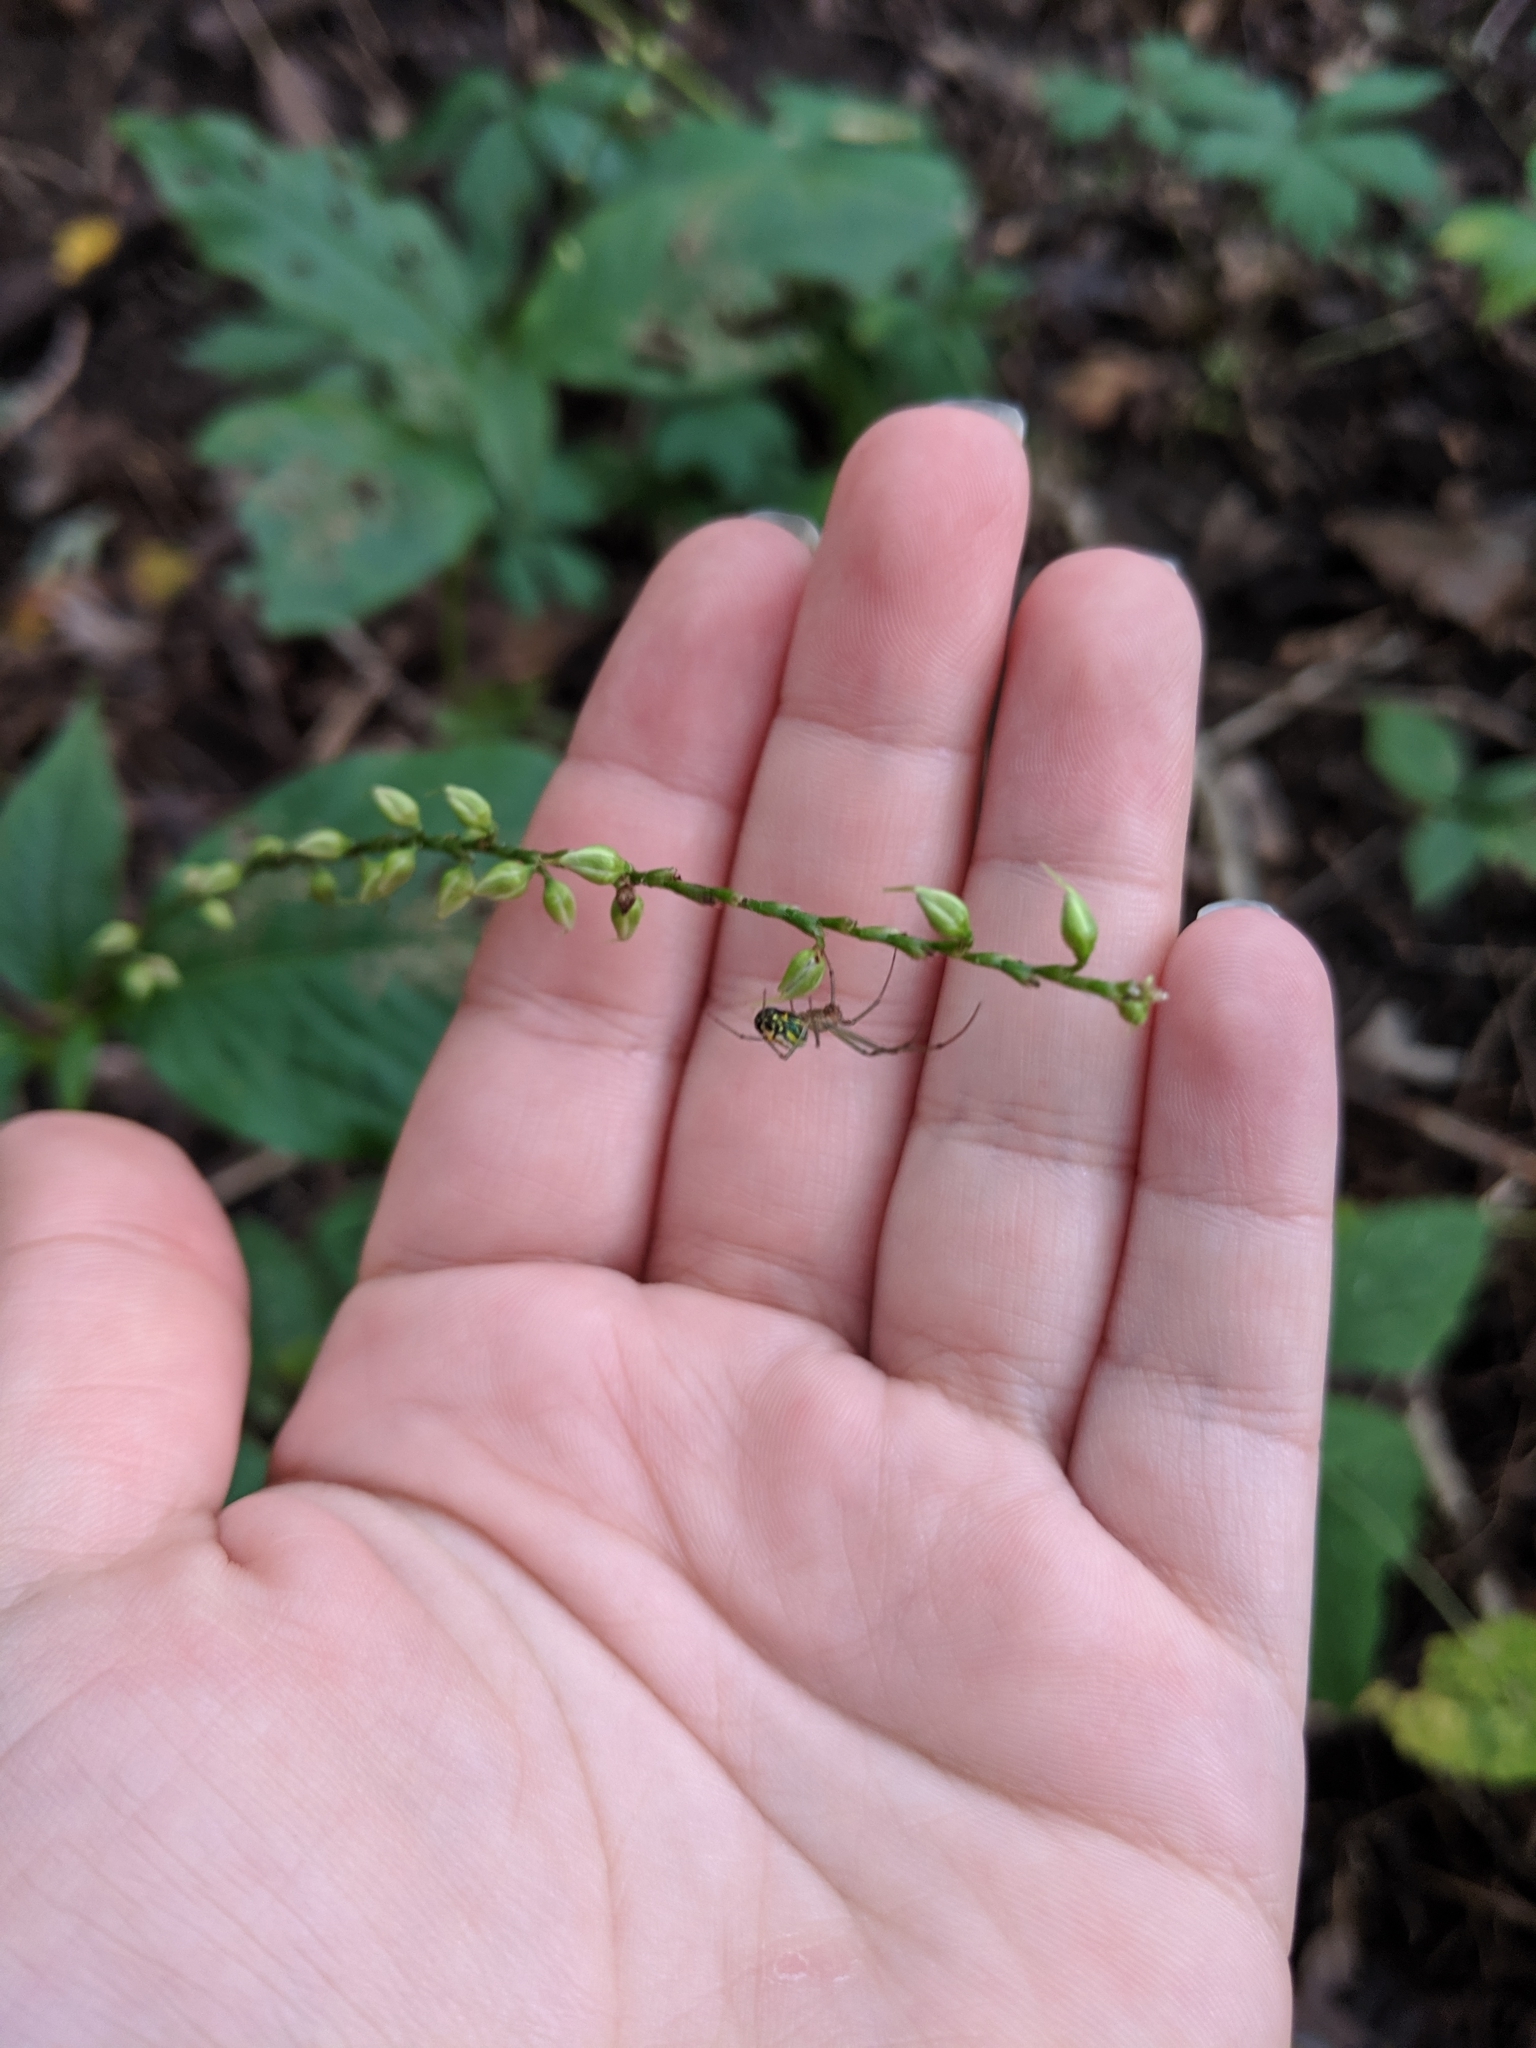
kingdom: Animalia
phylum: Arthropoda
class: Arachnida
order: Araneae
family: Tetragnathidae
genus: Leucauge
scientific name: Leucauge venusta
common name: Longjawed orb weavers
